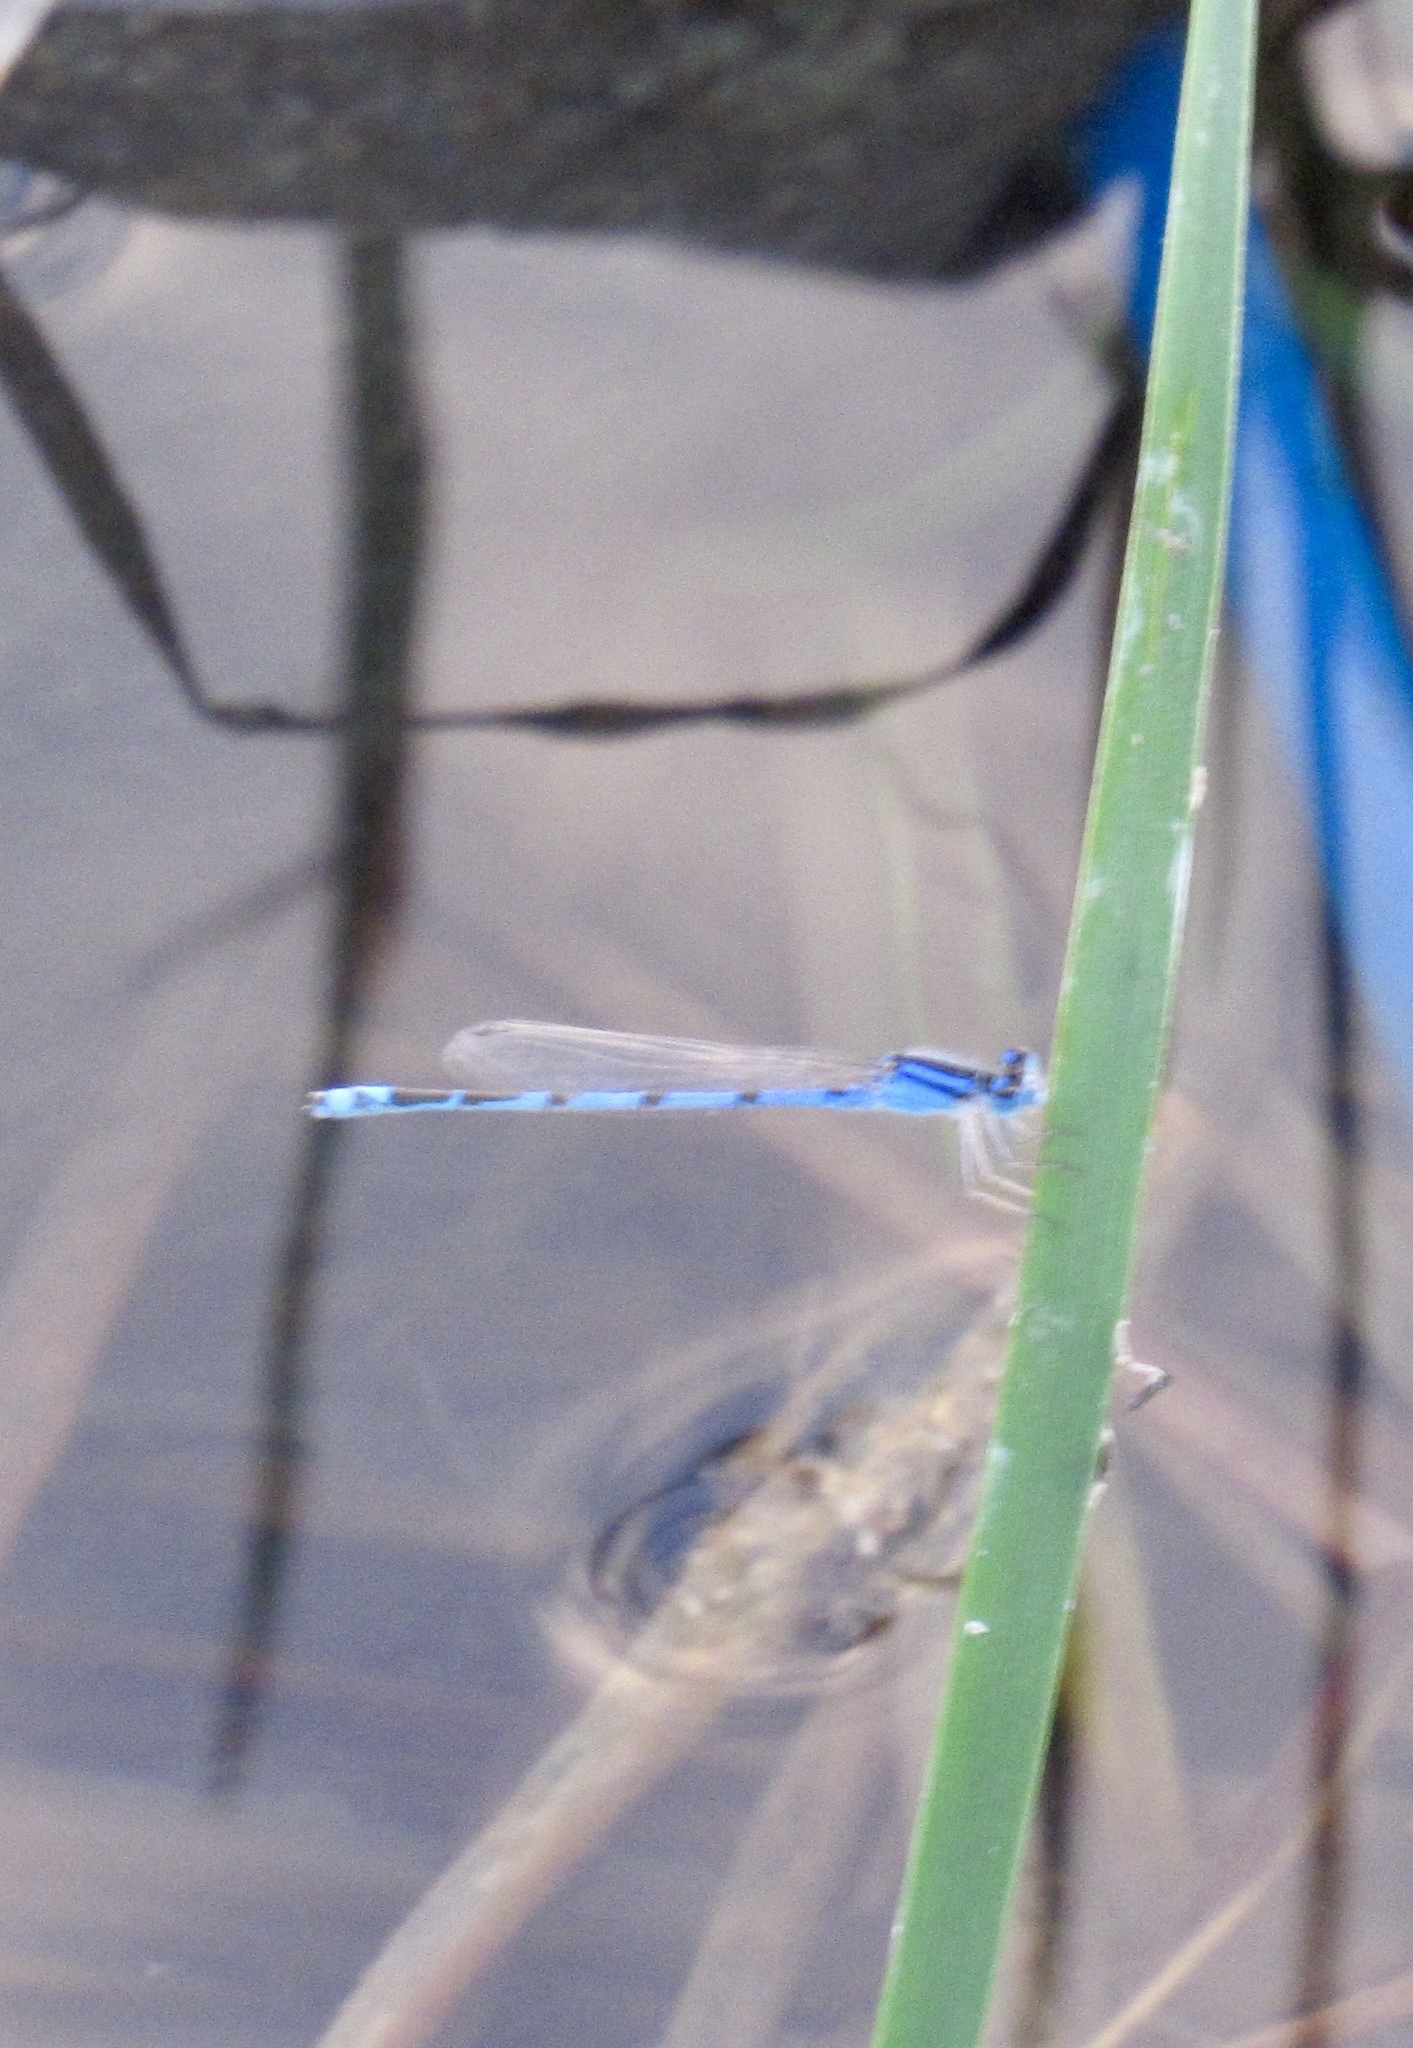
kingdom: Animalia
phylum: Arthropoda
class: Insecta
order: Odonata
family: Coenagrionidae
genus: Enallagma
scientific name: Enallagma civile
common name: Damselfly
